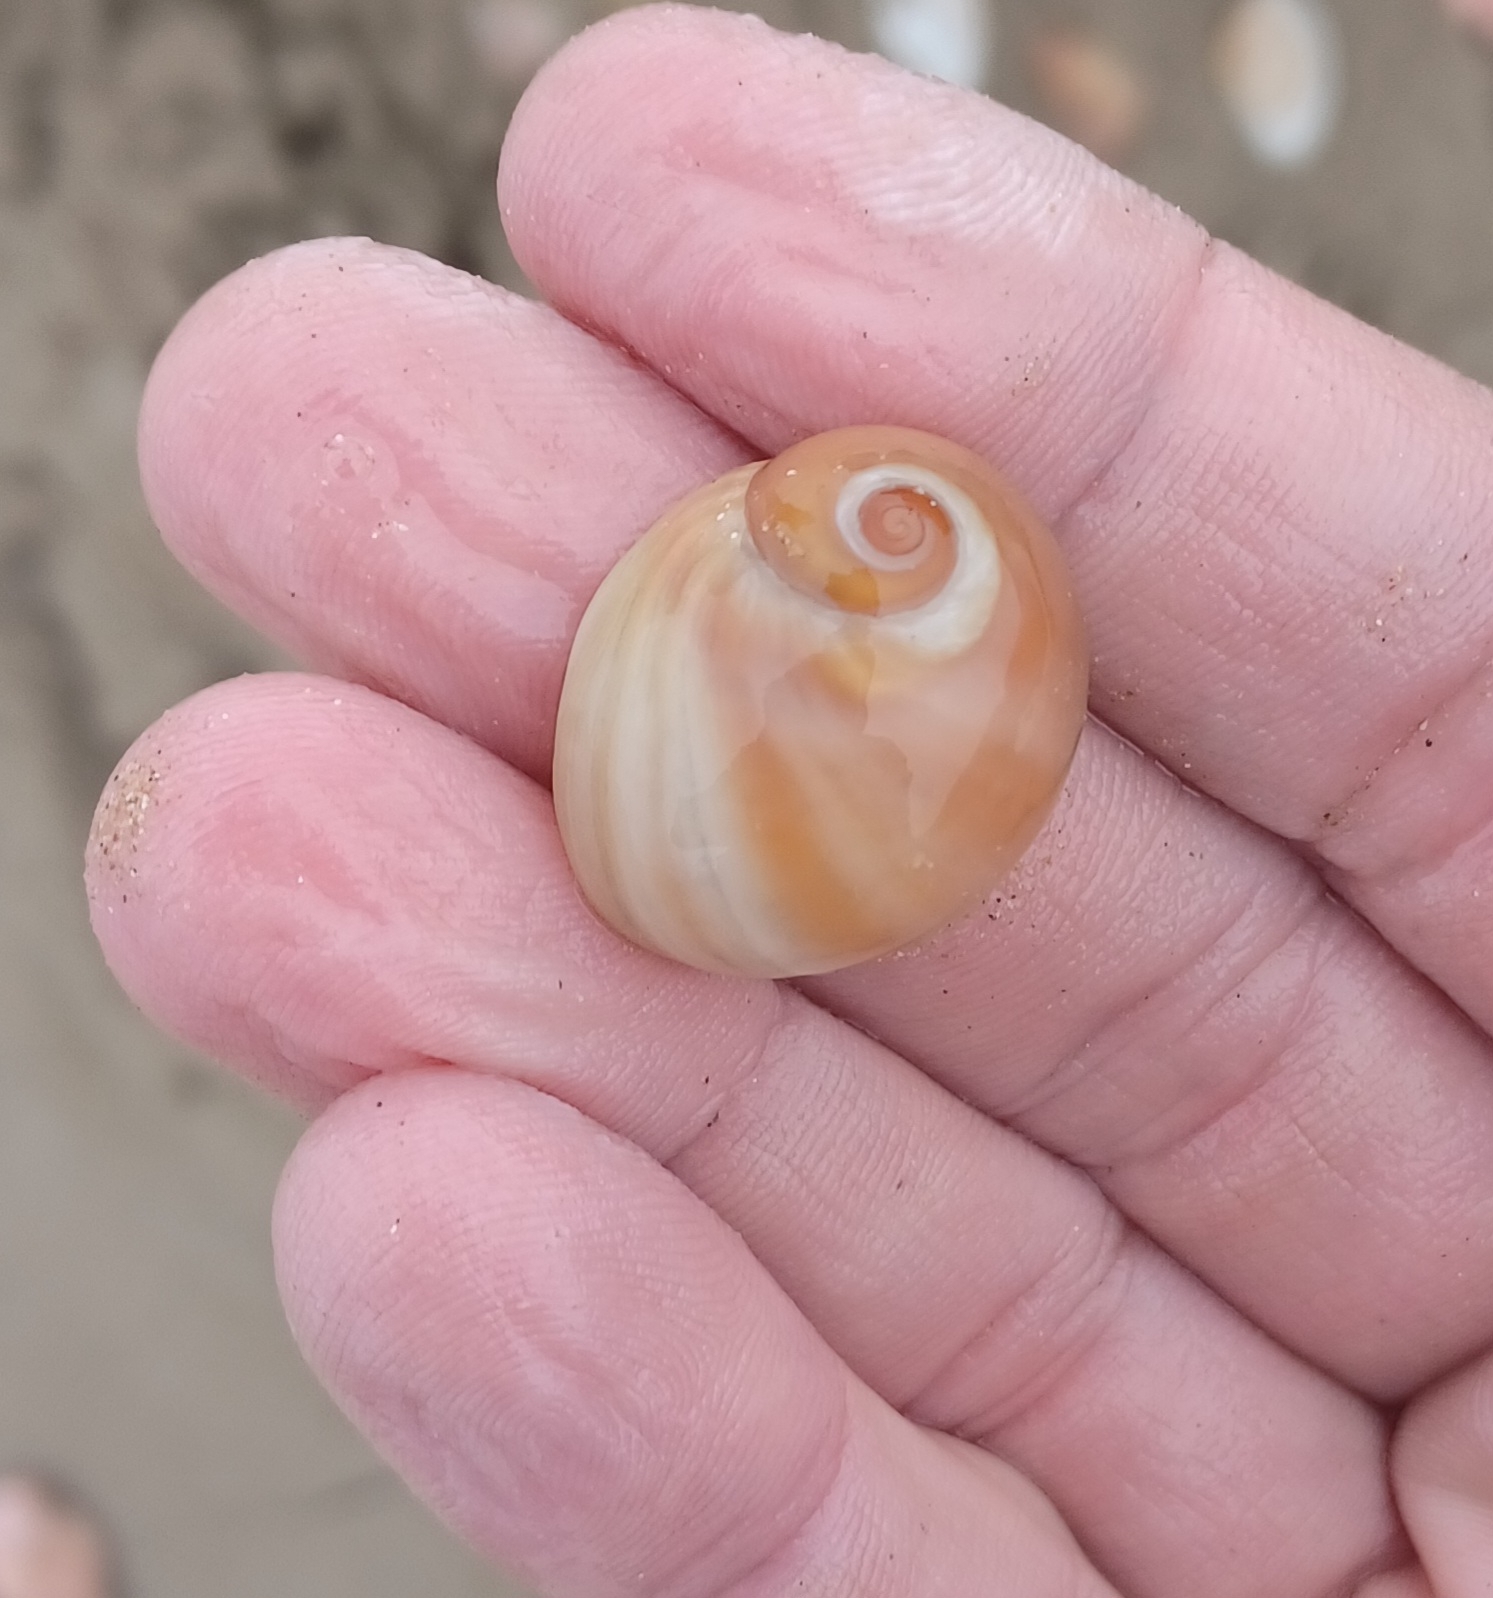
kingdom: Animalia
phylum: Mollusca
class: Gastropoda
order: Littorinimorpha
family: Naticidae
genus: Conuber
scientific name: Conuber melastoma
